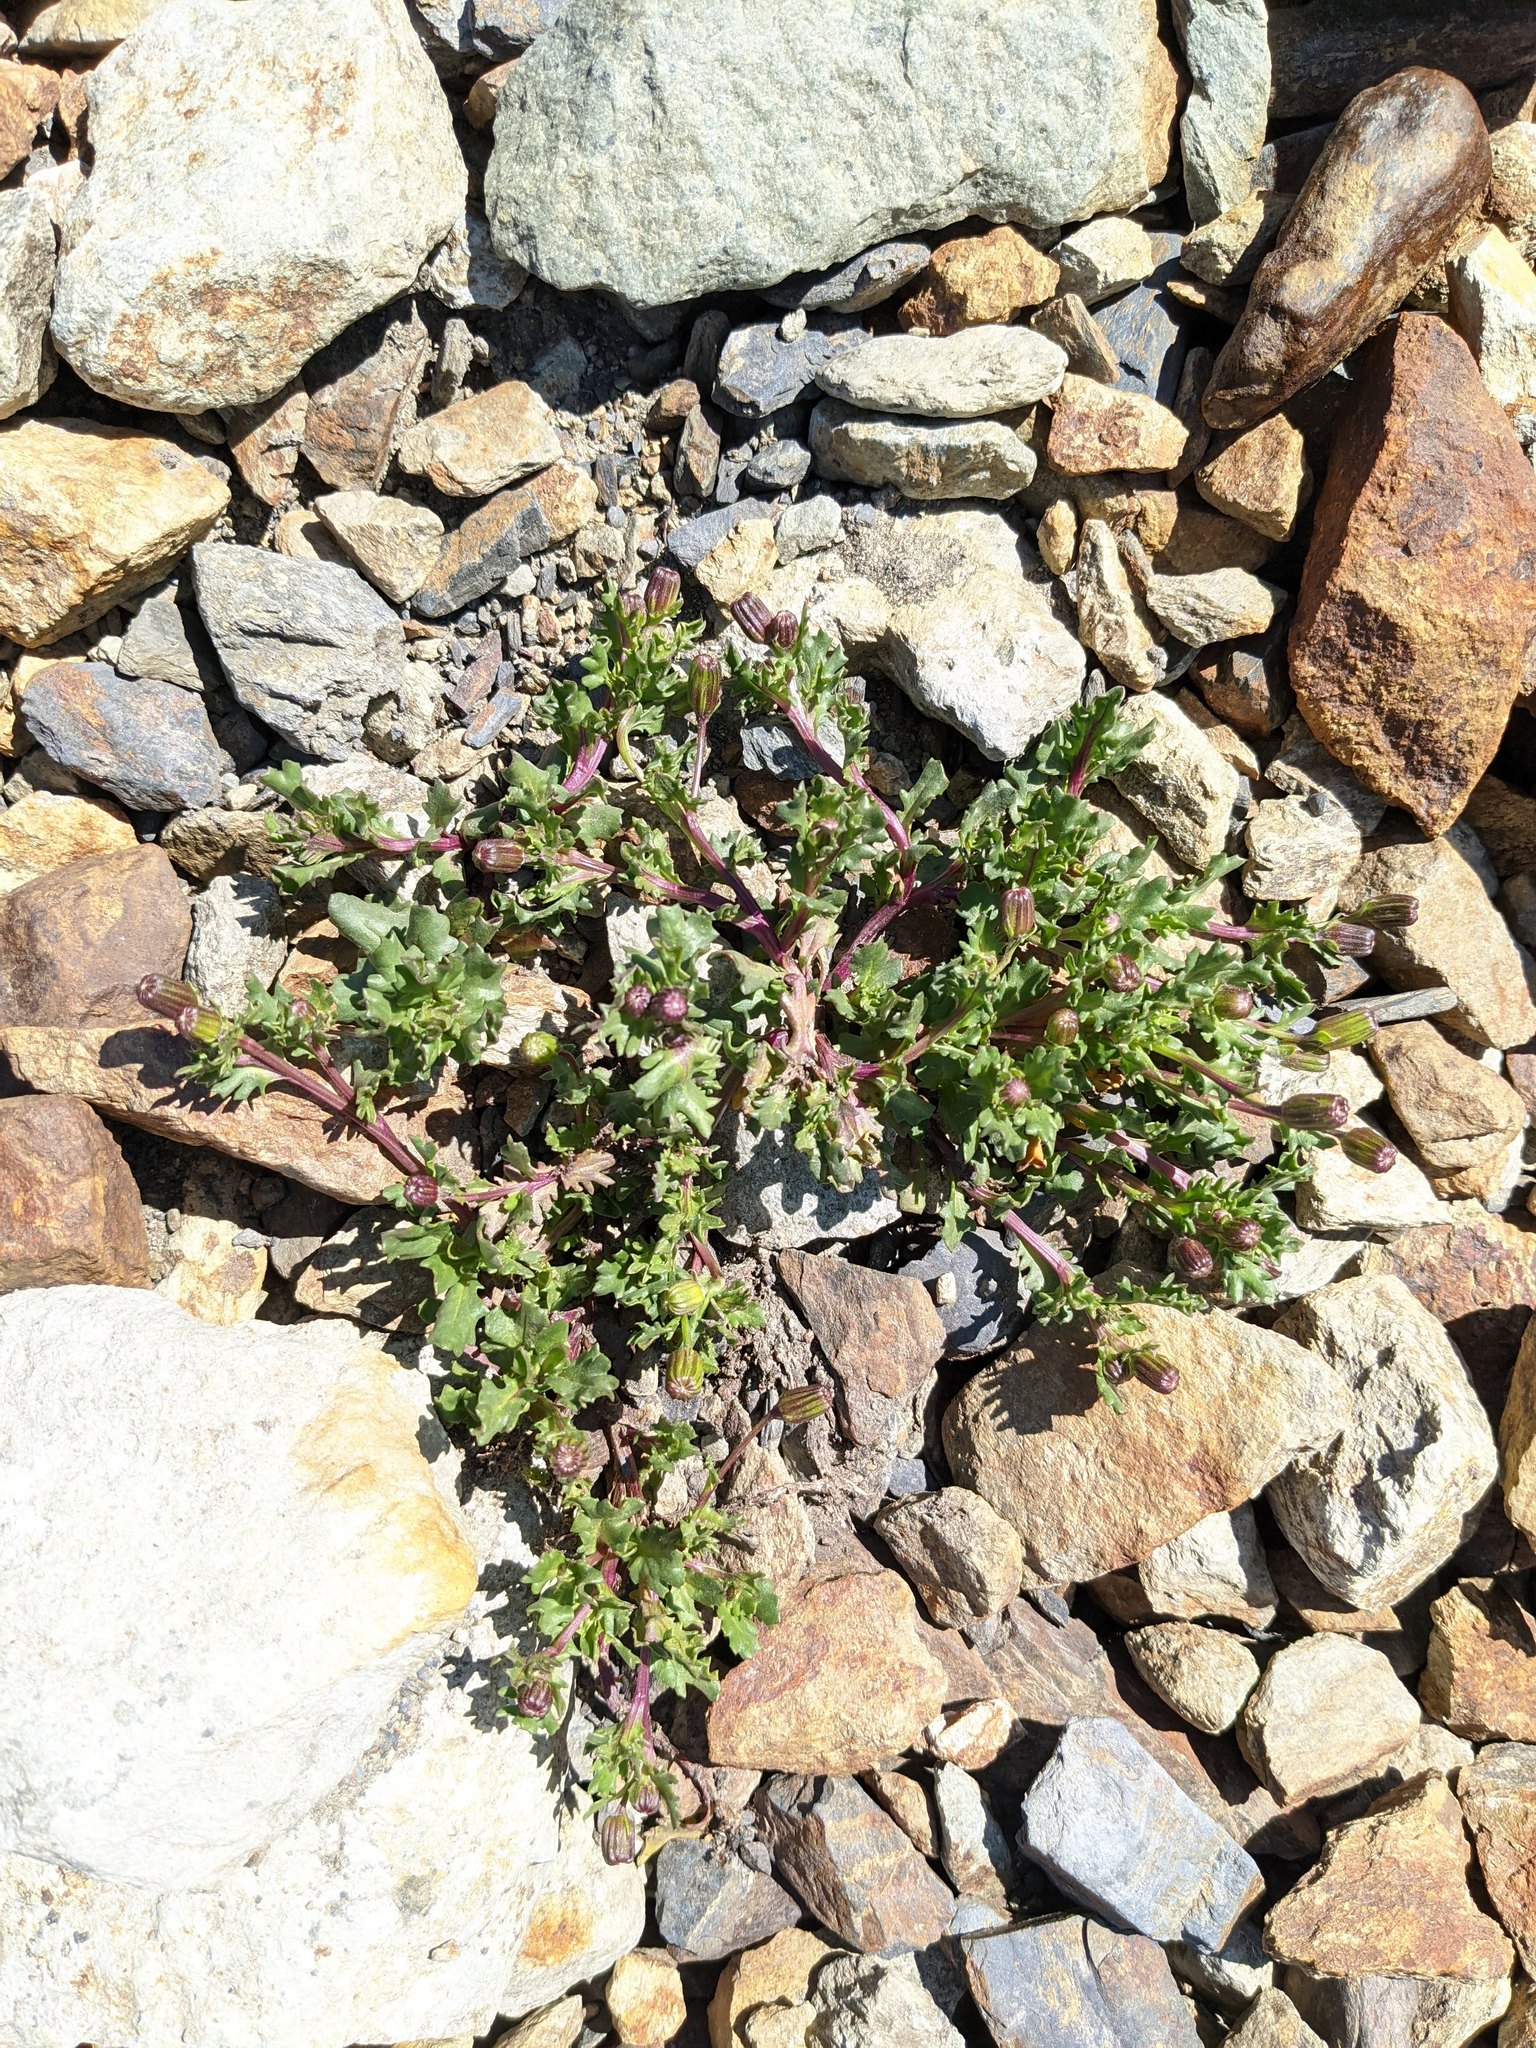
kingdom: Plantae
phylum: Tracheophyta
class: Magnoliopsida
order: Asterales
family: Asteraceae
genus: Senecio
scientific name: Senecio fremontii
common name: Fremont's groundsel
